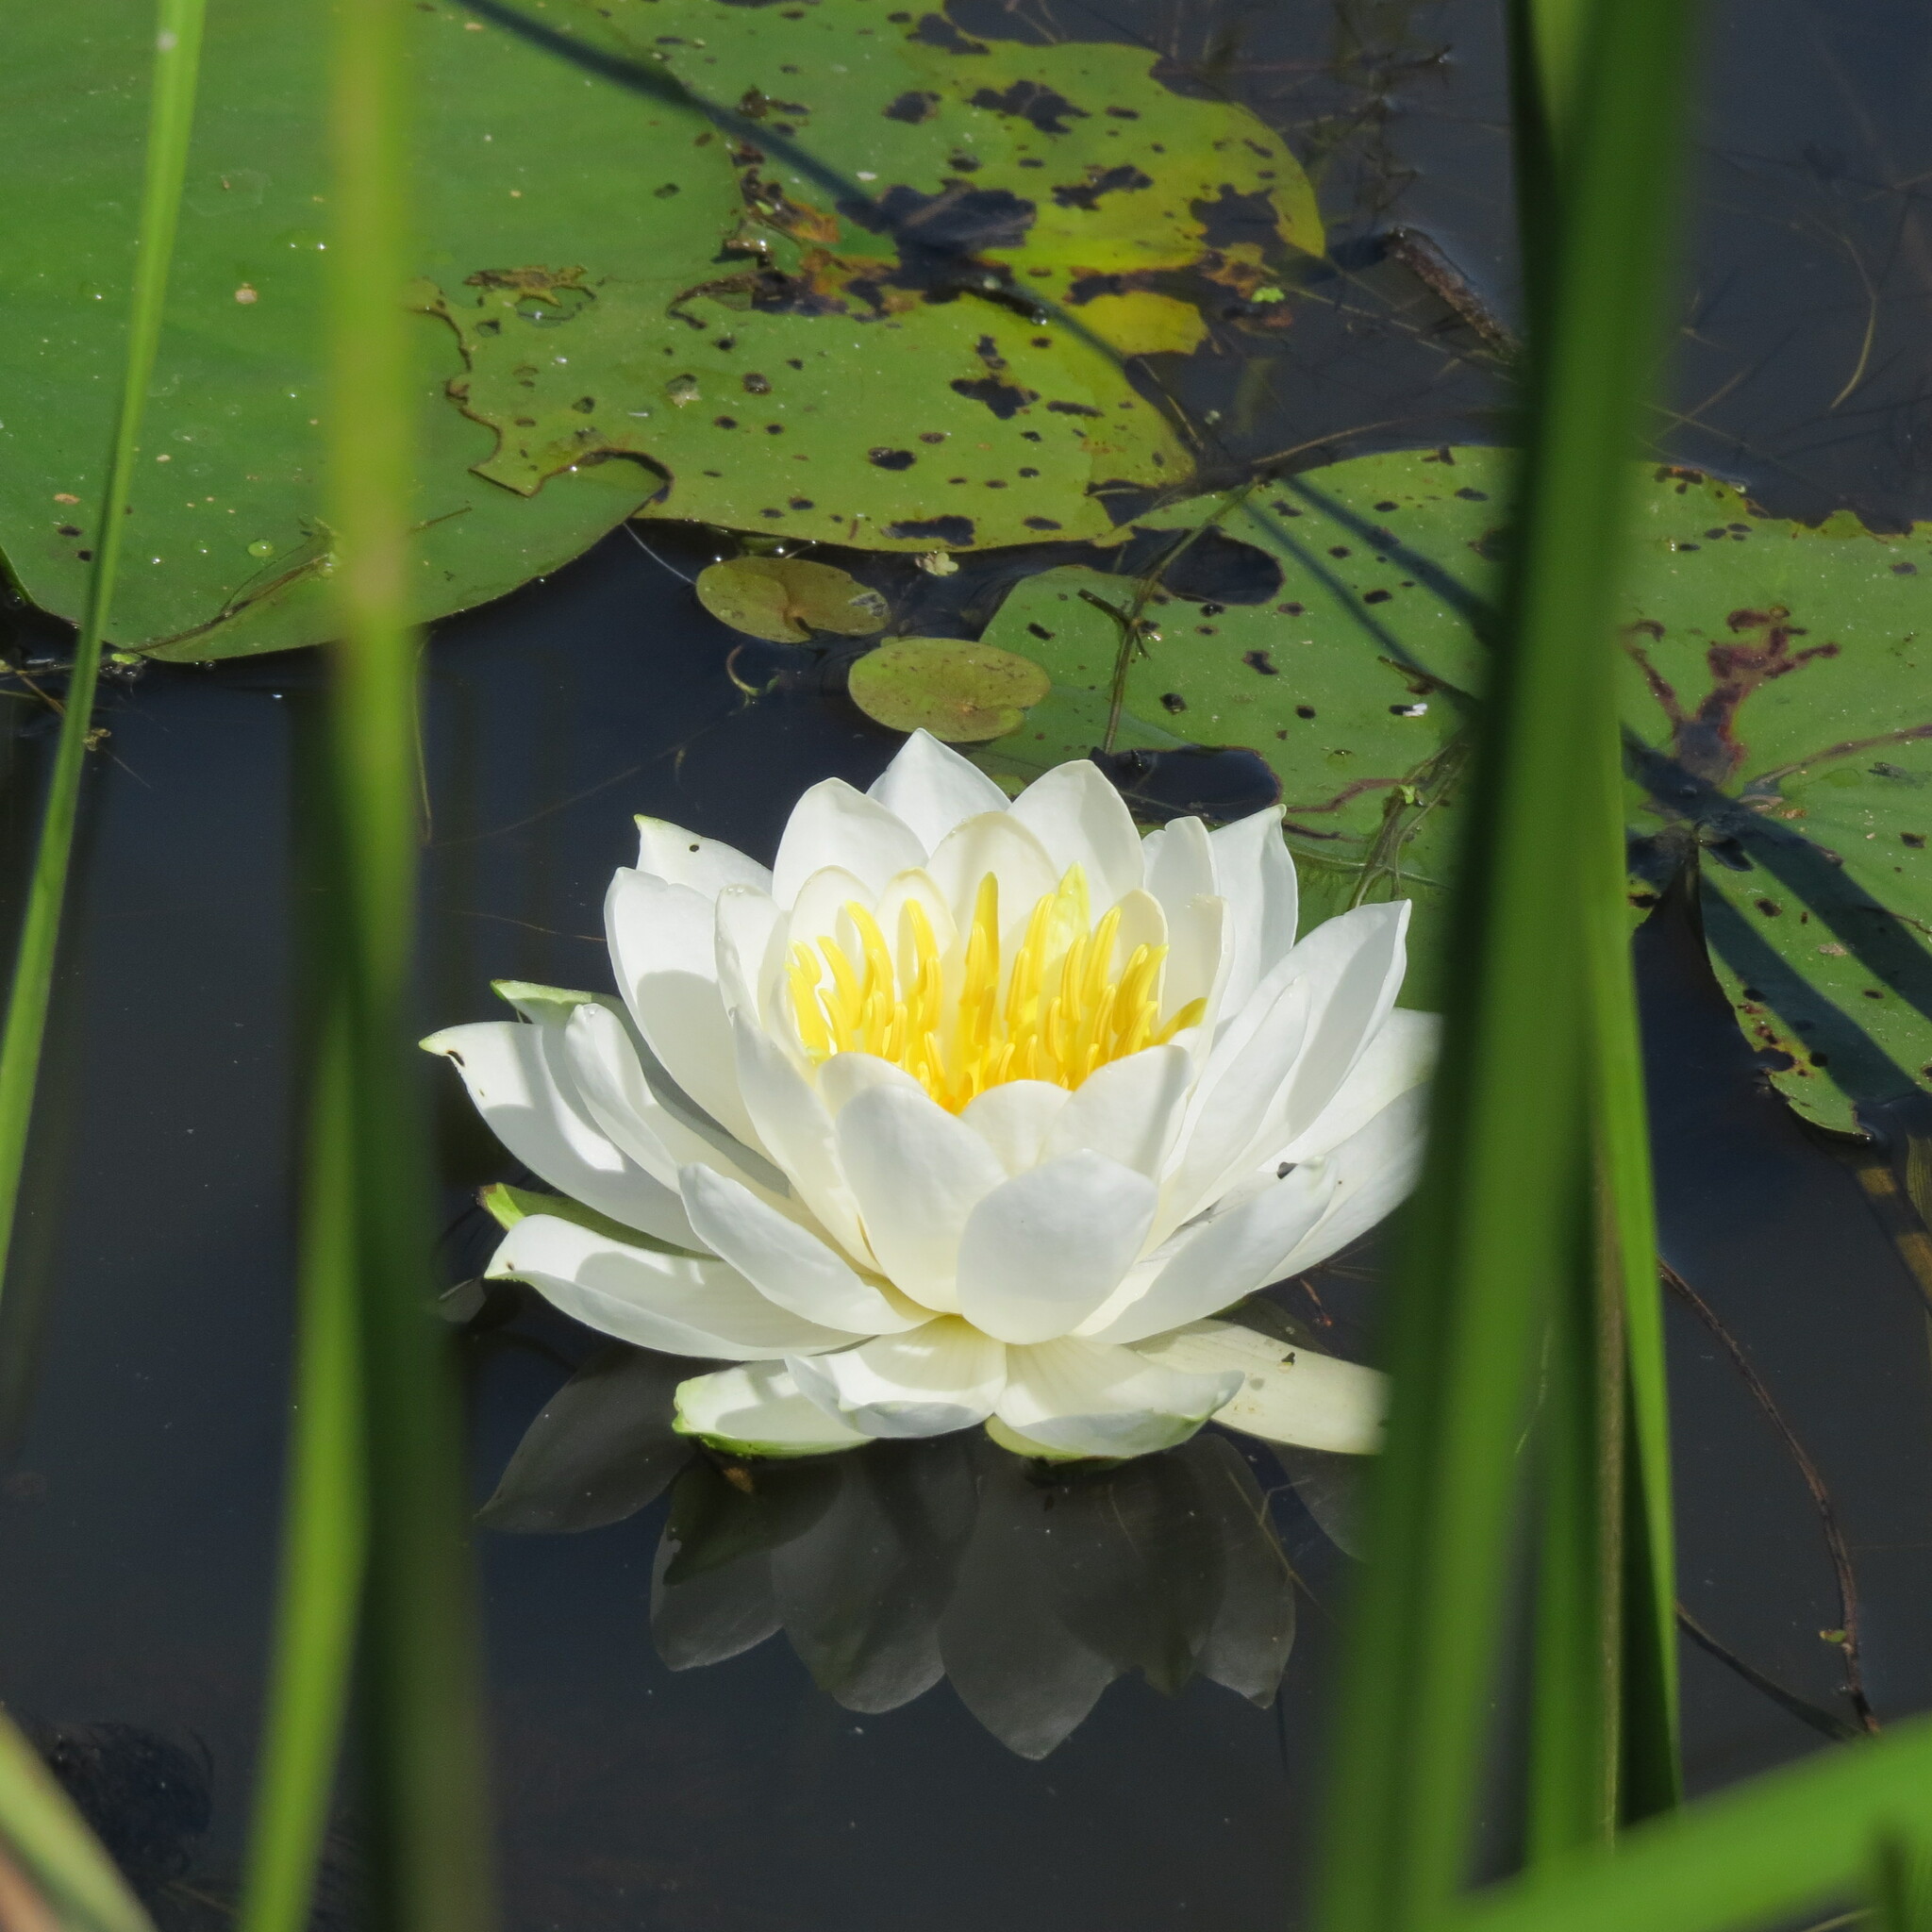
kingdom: Plantae
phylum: Tracheophyta
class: Magnoliopsida
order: Nymphaeales
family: Nymphaeaceae
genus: Nymphaea
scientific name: Nymphaea odorata
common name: Fragrant water-lily
